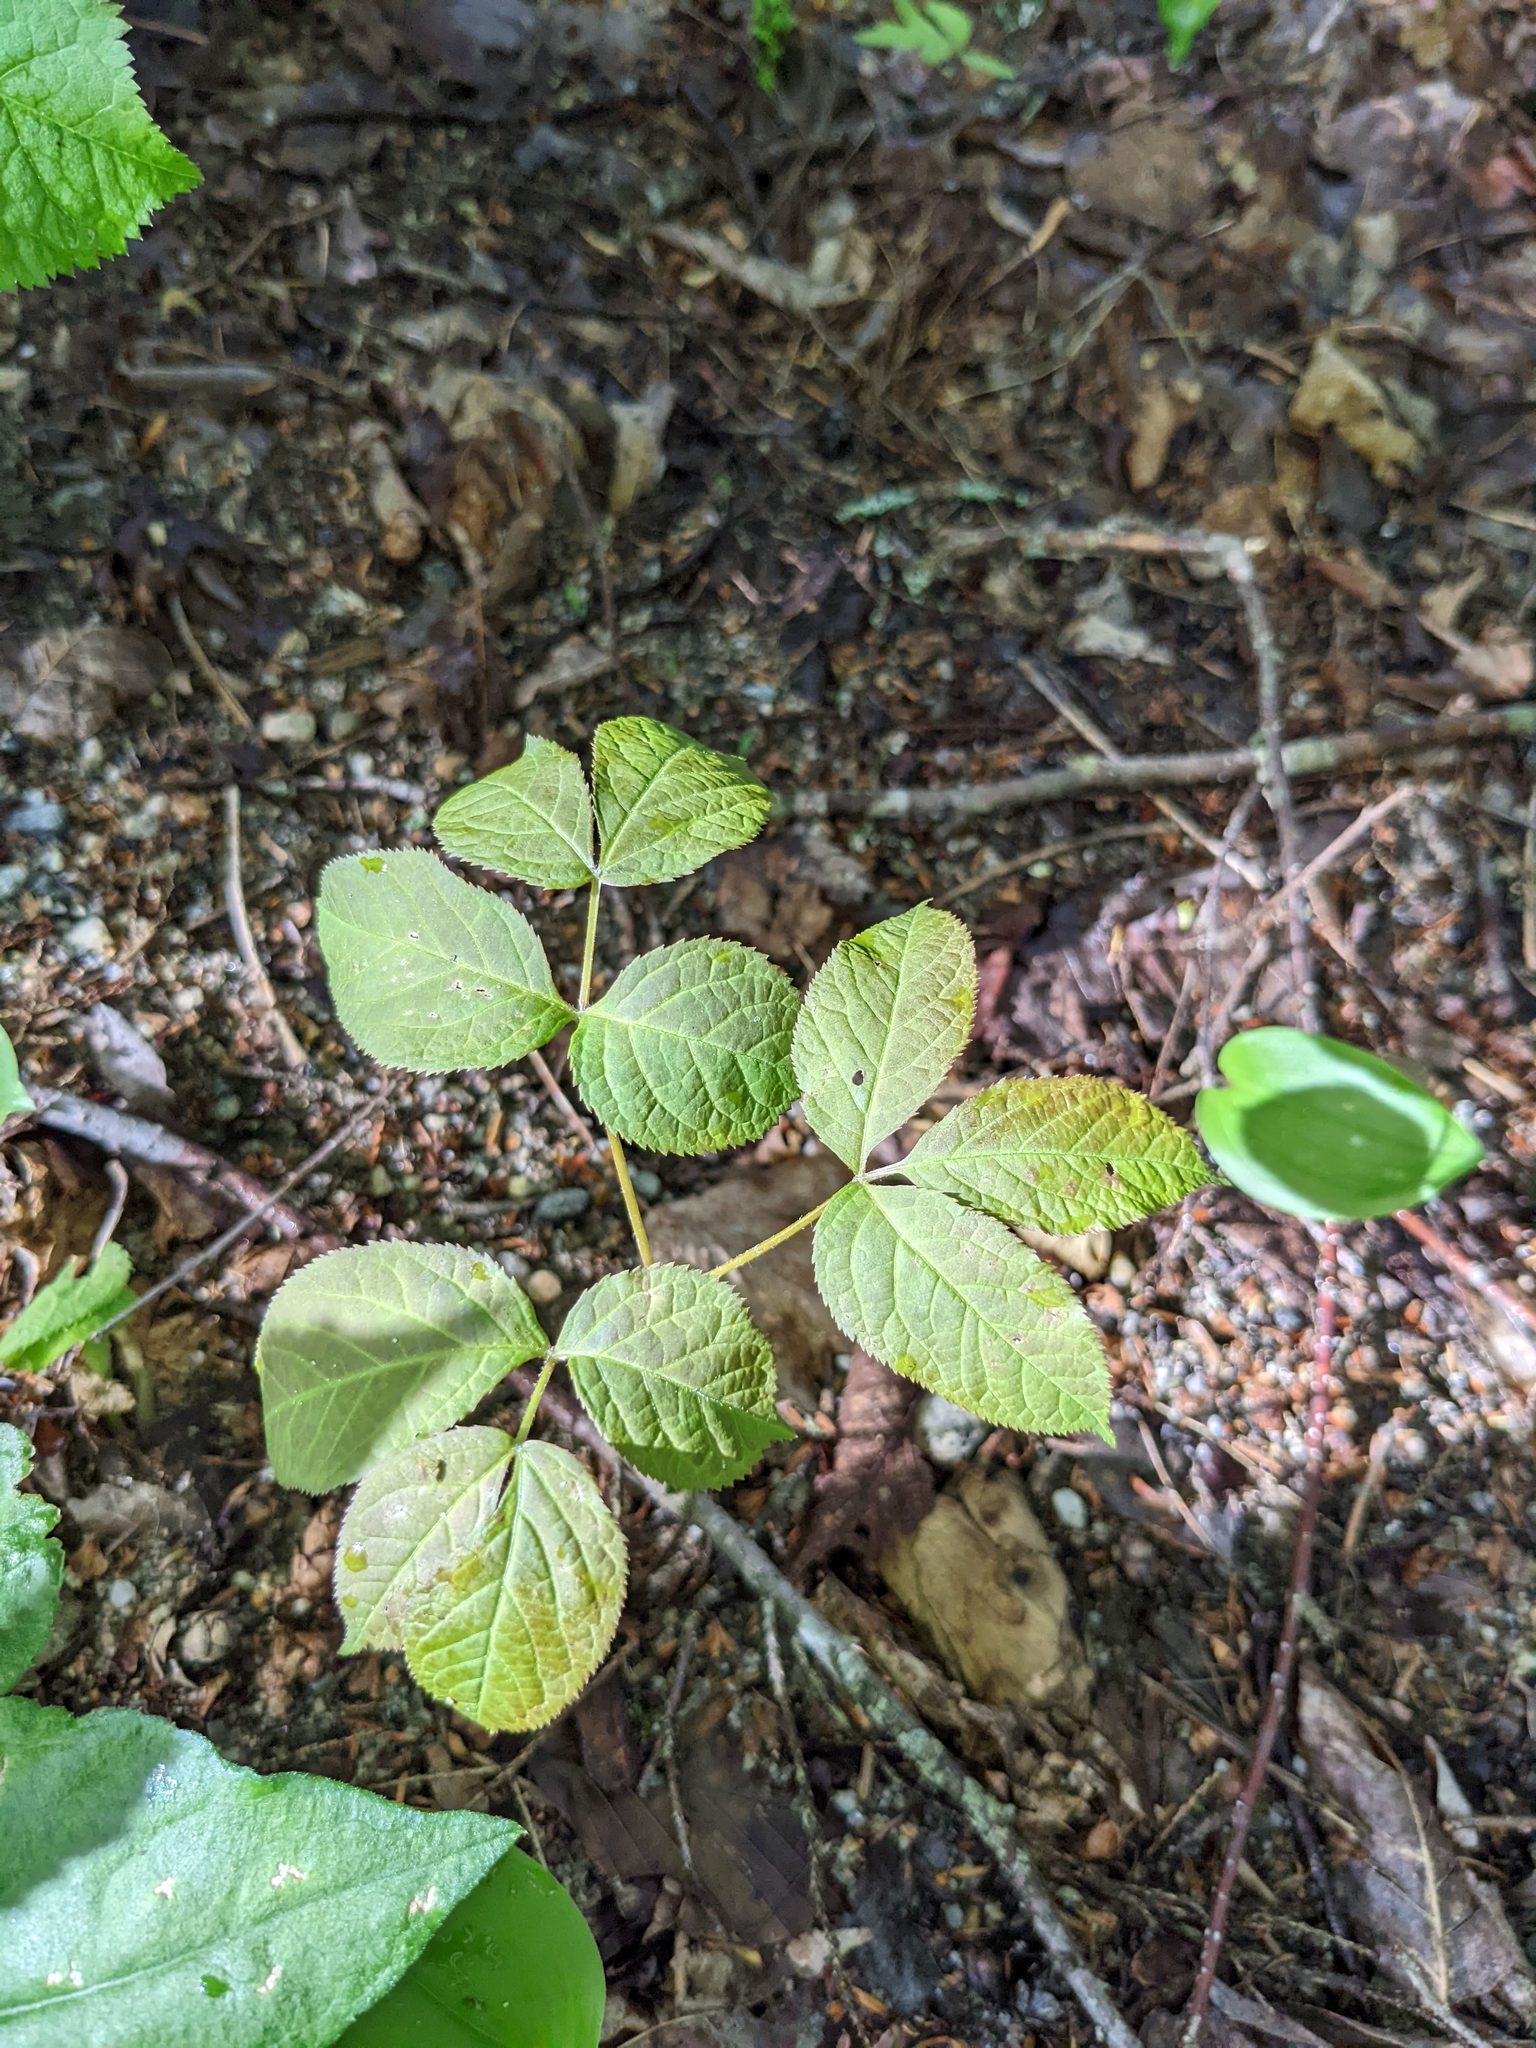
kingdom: Plantae
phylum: Tracheophyta
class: Magnoliopsida
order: Apiales
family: Araliaceae
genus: Aralia
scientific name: Aralia nudicaulis
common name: Wild sarsaparilla
